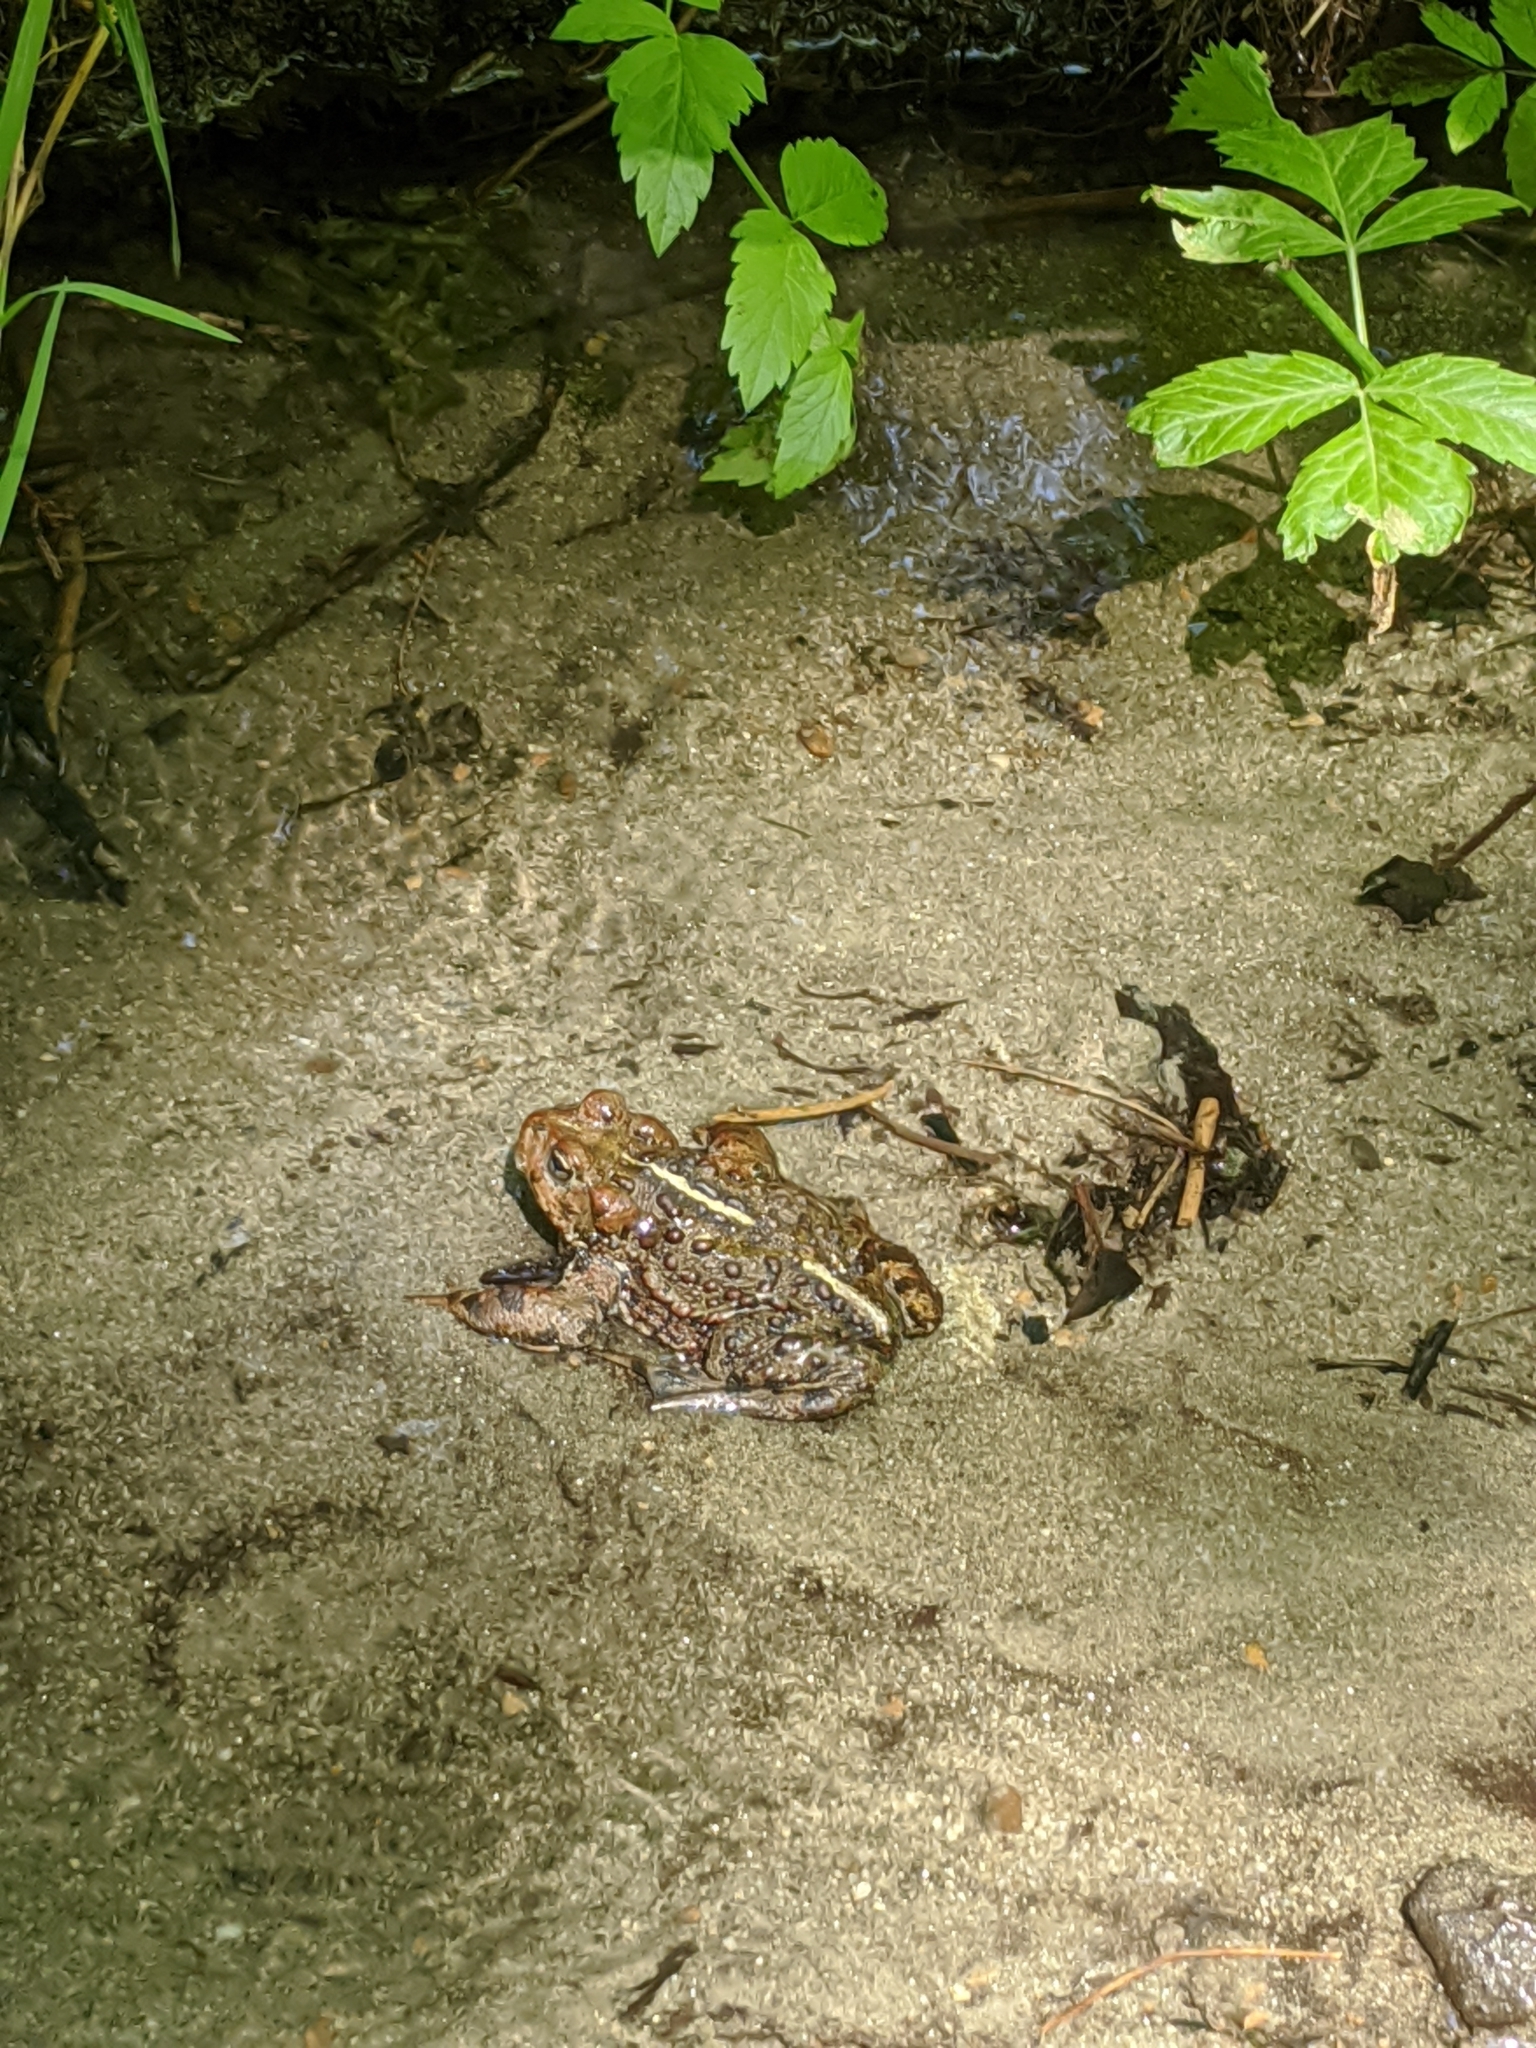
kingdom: Animalia
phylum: Chordata
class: Amphibia
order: Anura
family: Bufonidae
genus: Anaxyrus
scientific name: Anaxyrus boreas
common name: Western toad
